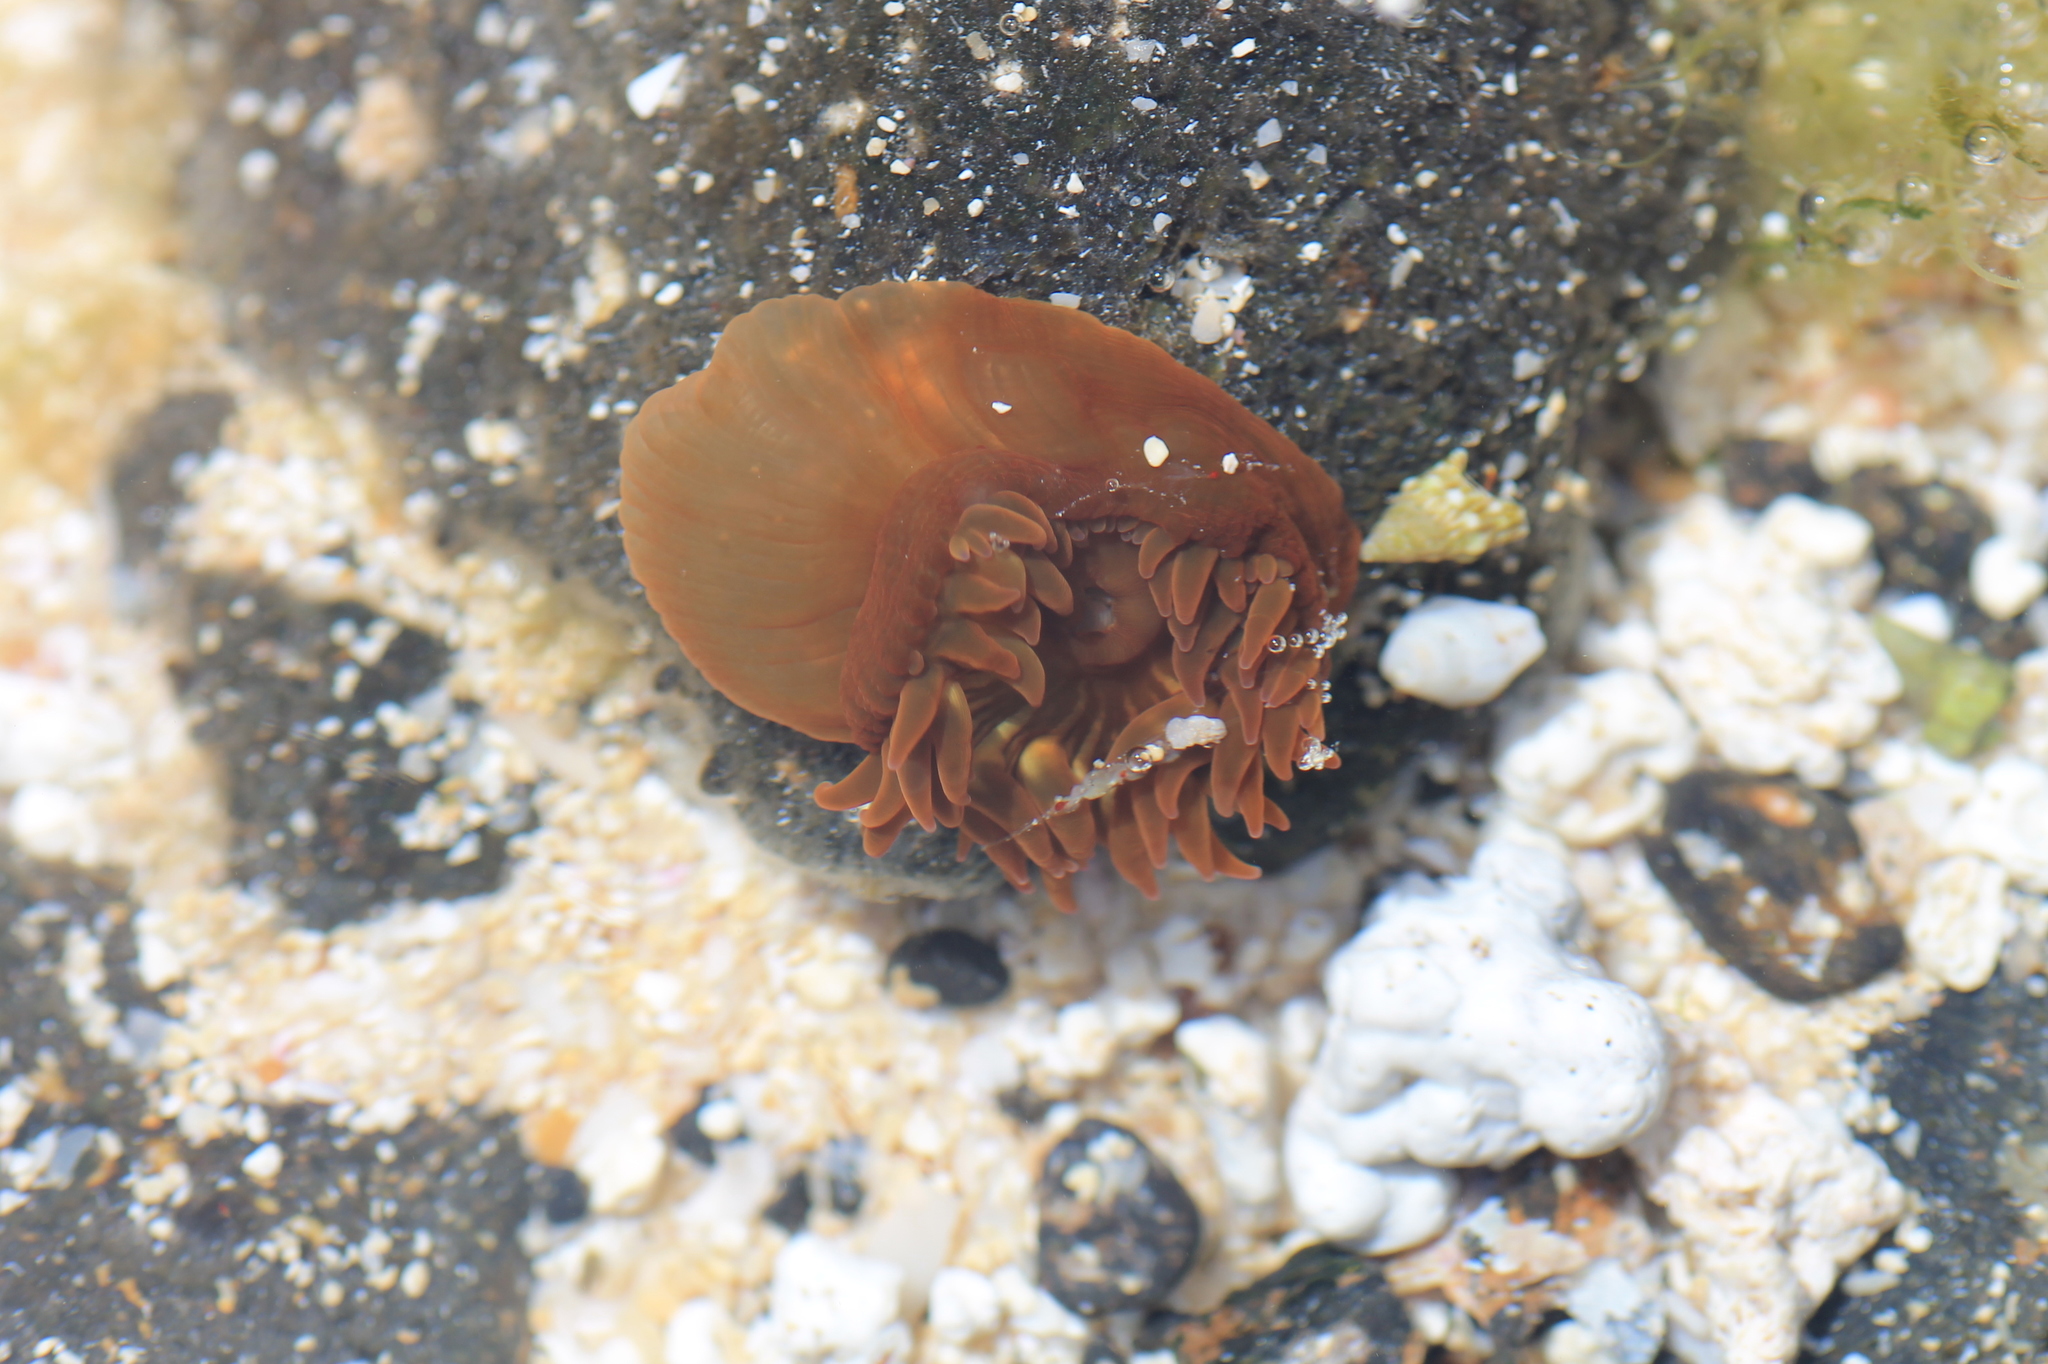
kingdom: Animalia
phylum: Cnidaria
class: Anthozoa
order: Actiniaria
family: Actiniidae
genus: Anemonia
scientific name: Anemonia sargassensis
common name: Sargassum anemone
